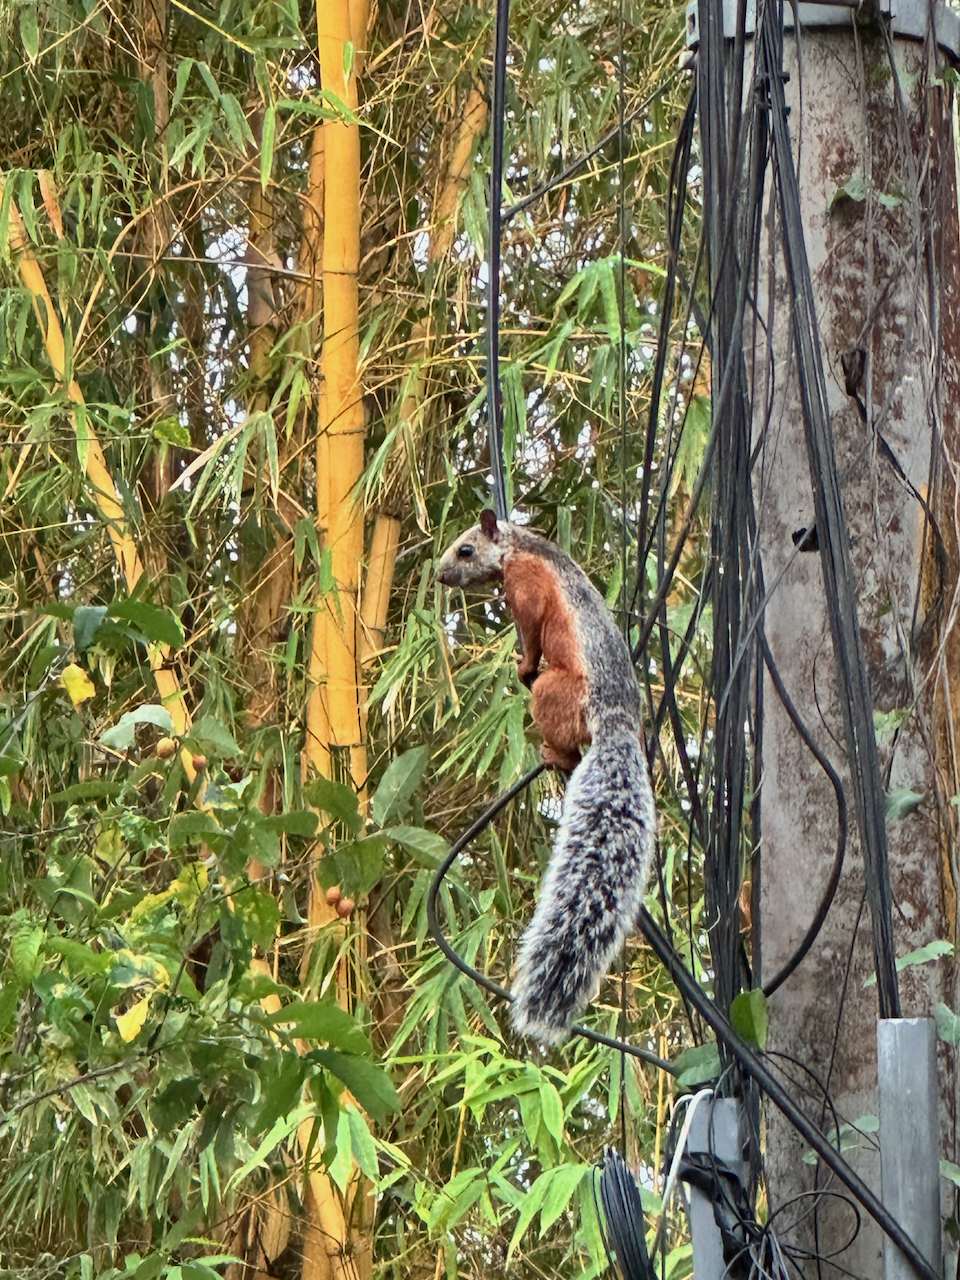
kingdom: Animalia
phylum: Chordata
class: Mammalia
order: Rodentia
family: Sciuridae
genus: Sciurus
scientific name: Sciurus variegatoides
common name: Variegated squirrel
